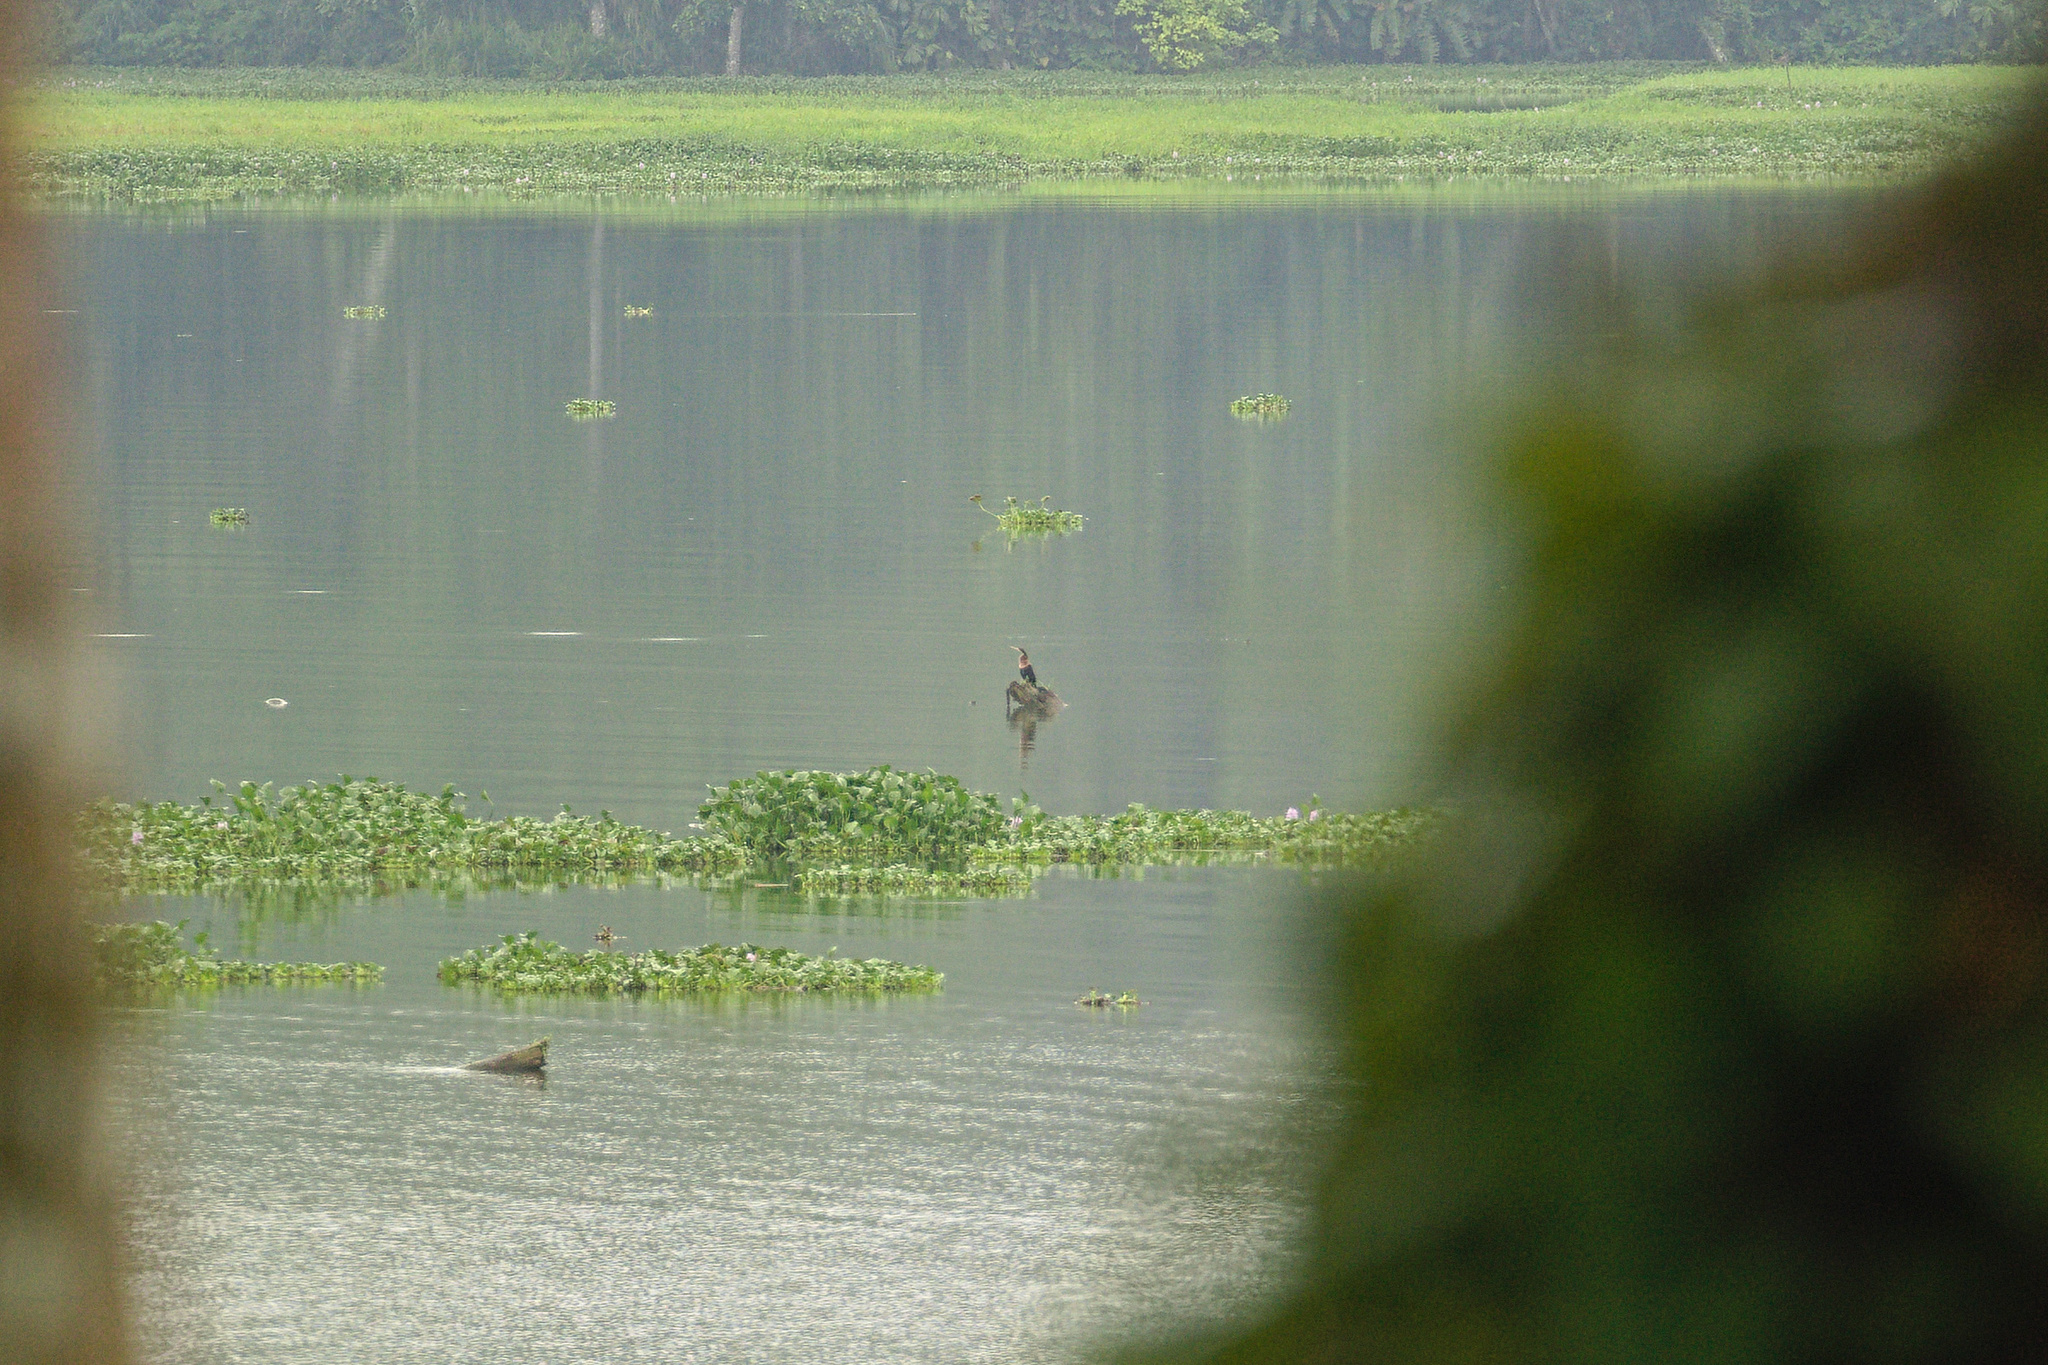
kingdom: Animalia
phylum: Chordata
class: Aves
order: Suliformes
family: Anhingidae
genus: Anhinga
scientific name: Anhinga anhinga
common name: Anhinga
